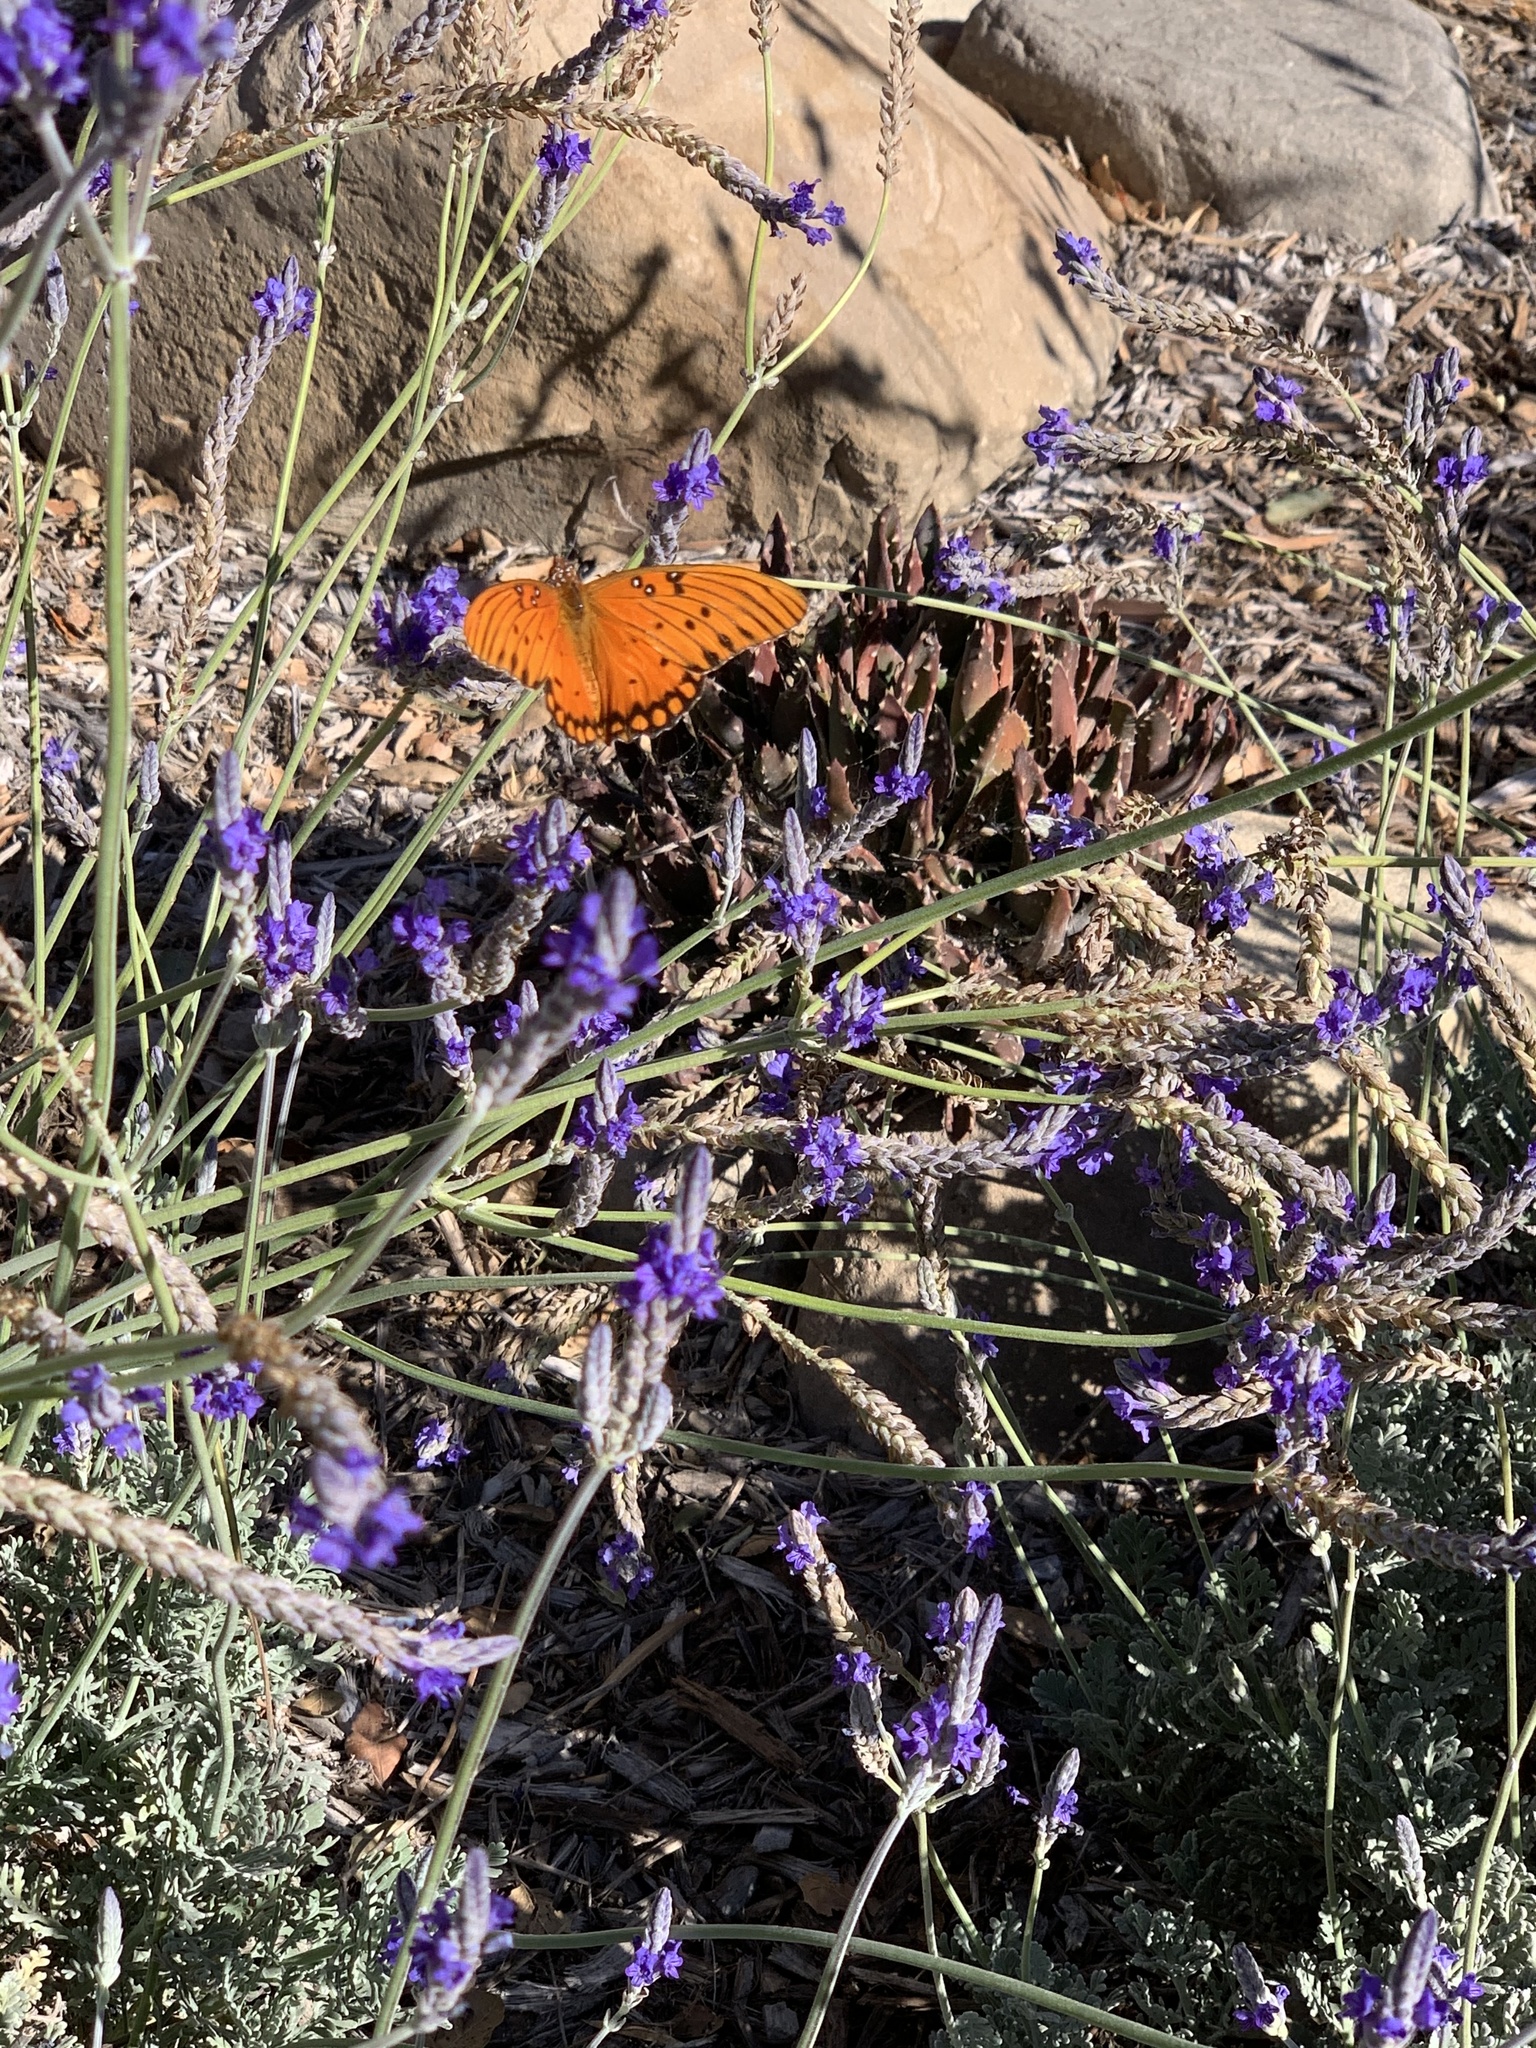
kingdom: Animalia
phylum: Arthropoda
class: Insecta
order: Lepidoptera
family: Nymphalidae
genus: Dione
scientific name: Dione vanillae
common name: Gulf fritillary
